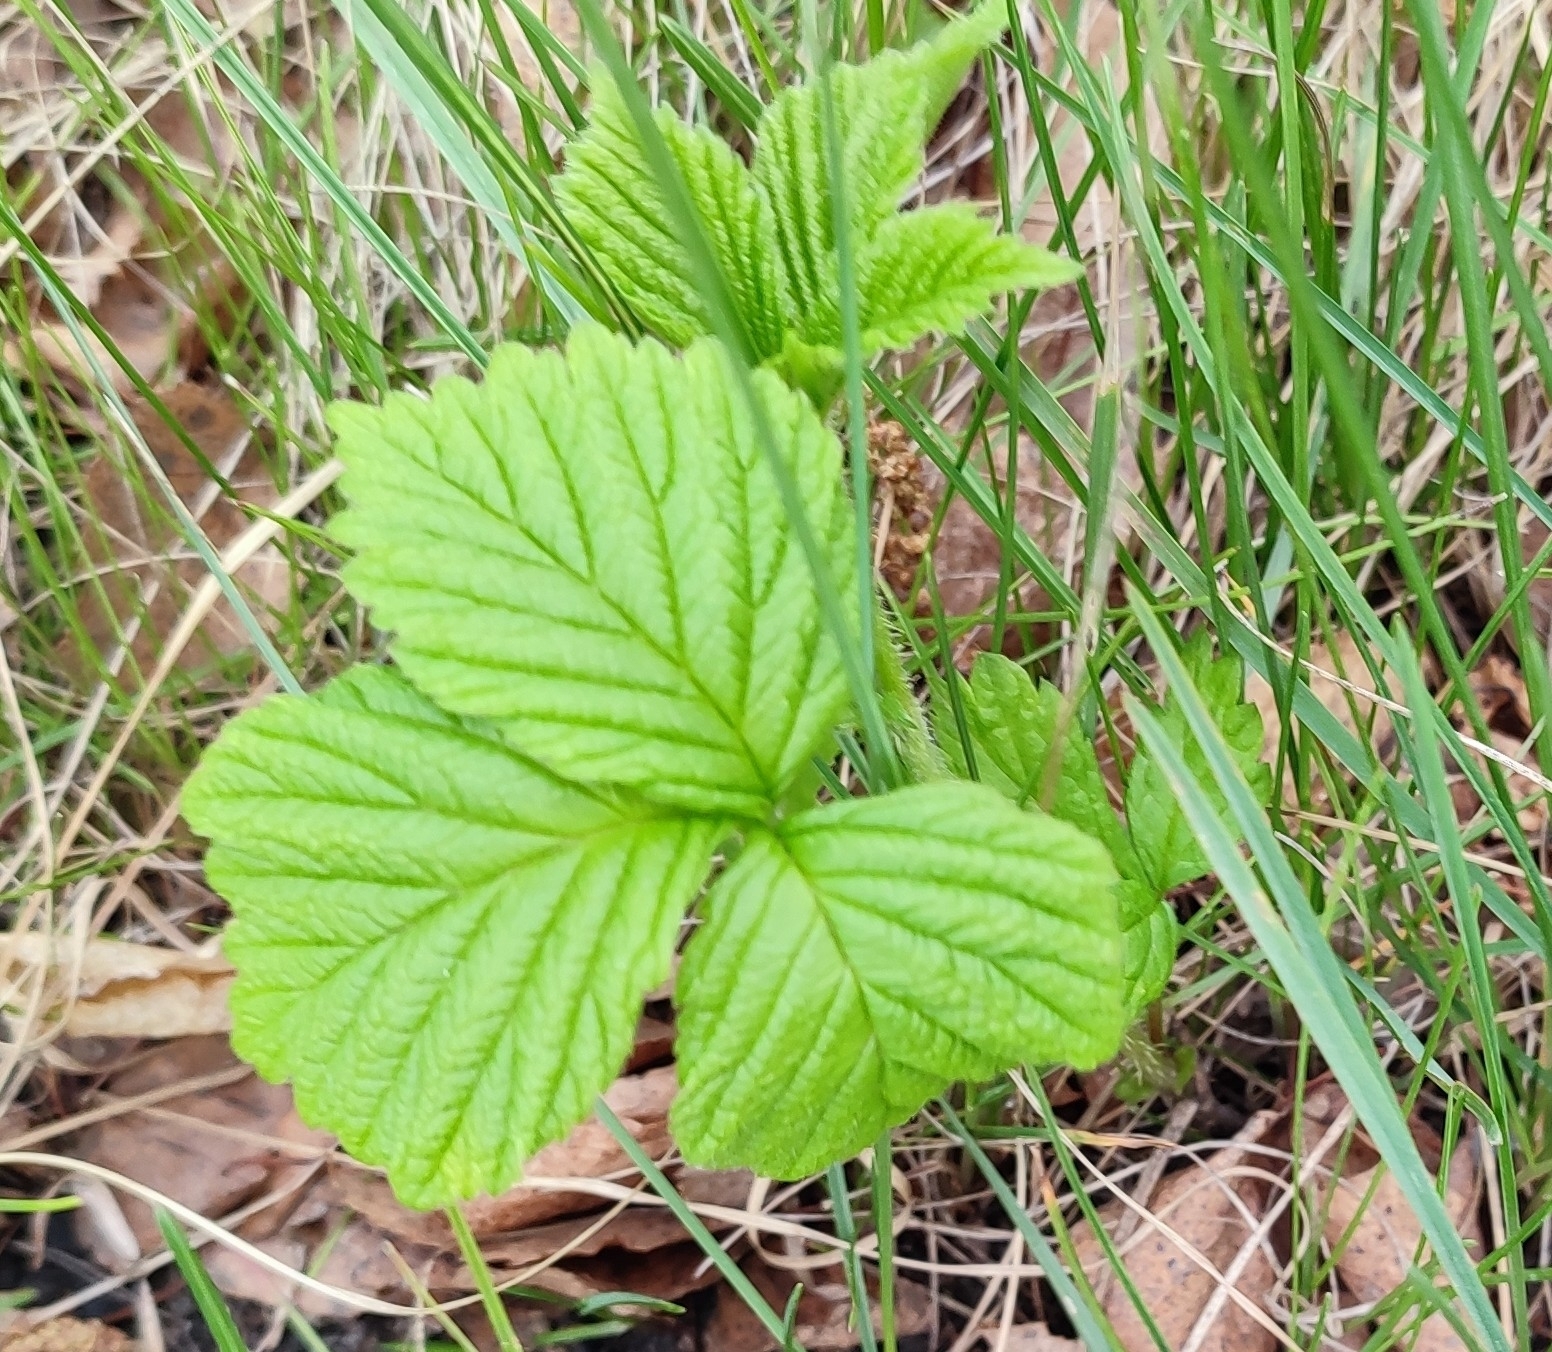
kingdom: Plantae
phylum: Tracheophyta
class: Magnoliopsida
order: Rosales
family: Rosaceae
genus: Rubus
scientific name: Rubus saxatilis
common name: Stone bramble
